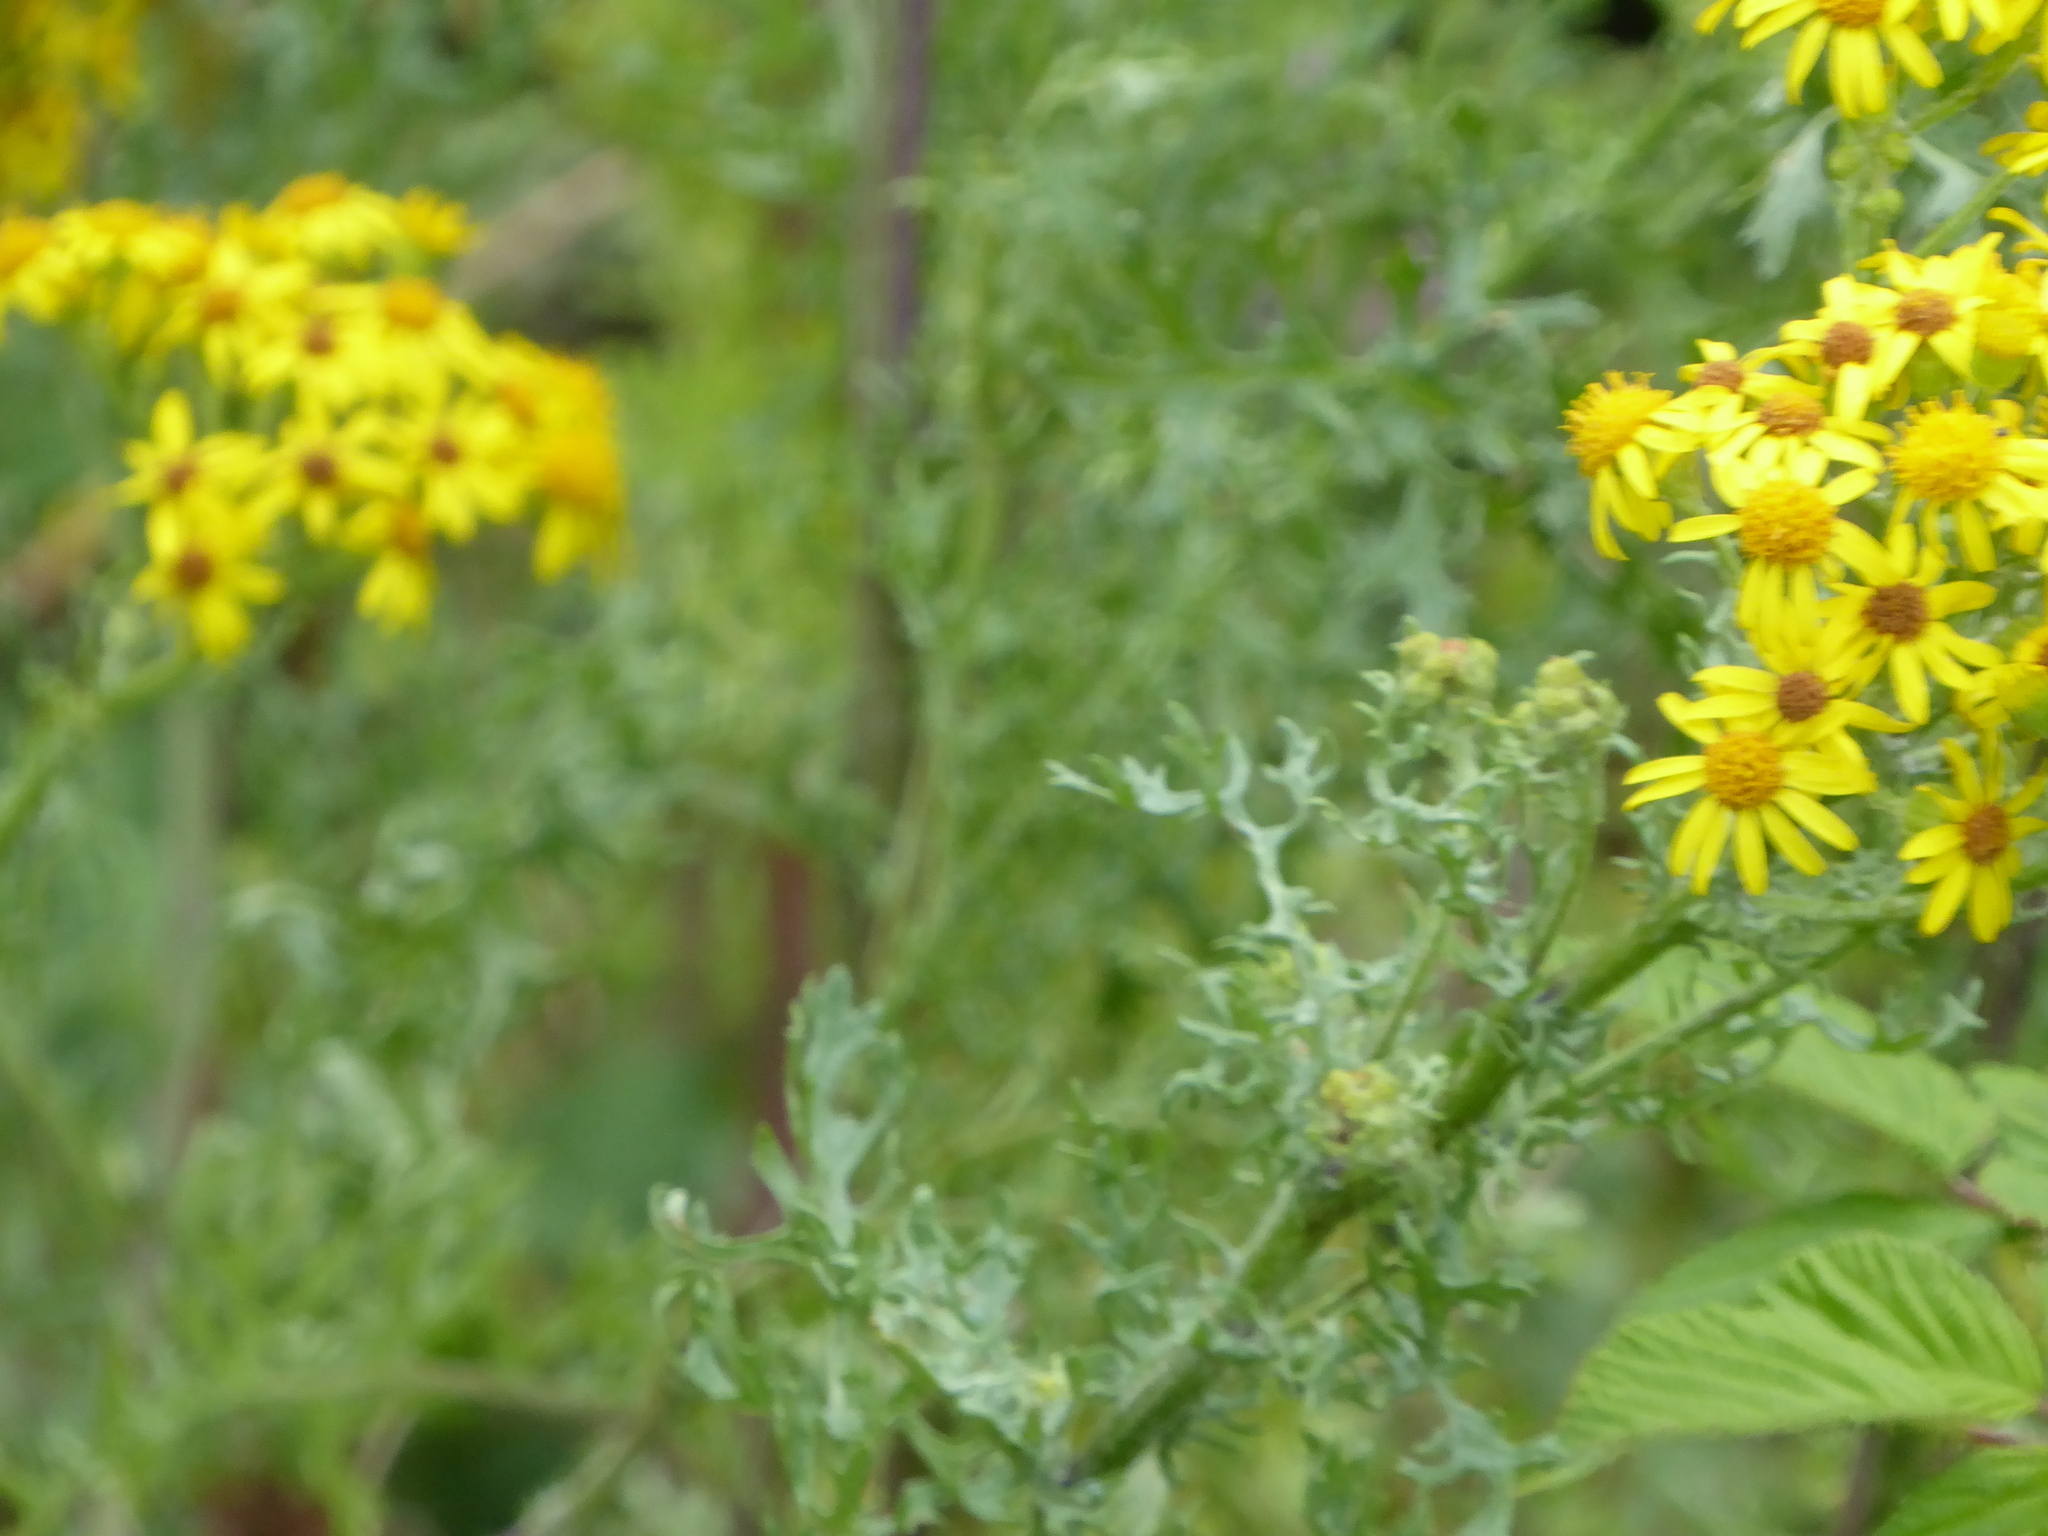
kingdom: Plantae
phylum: Tracheophyta
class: Magnoliopsida
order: Asterales
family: Asteraceae
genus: Jacobaea
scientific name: Jacobaea vulgaris
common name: Stinking willie
